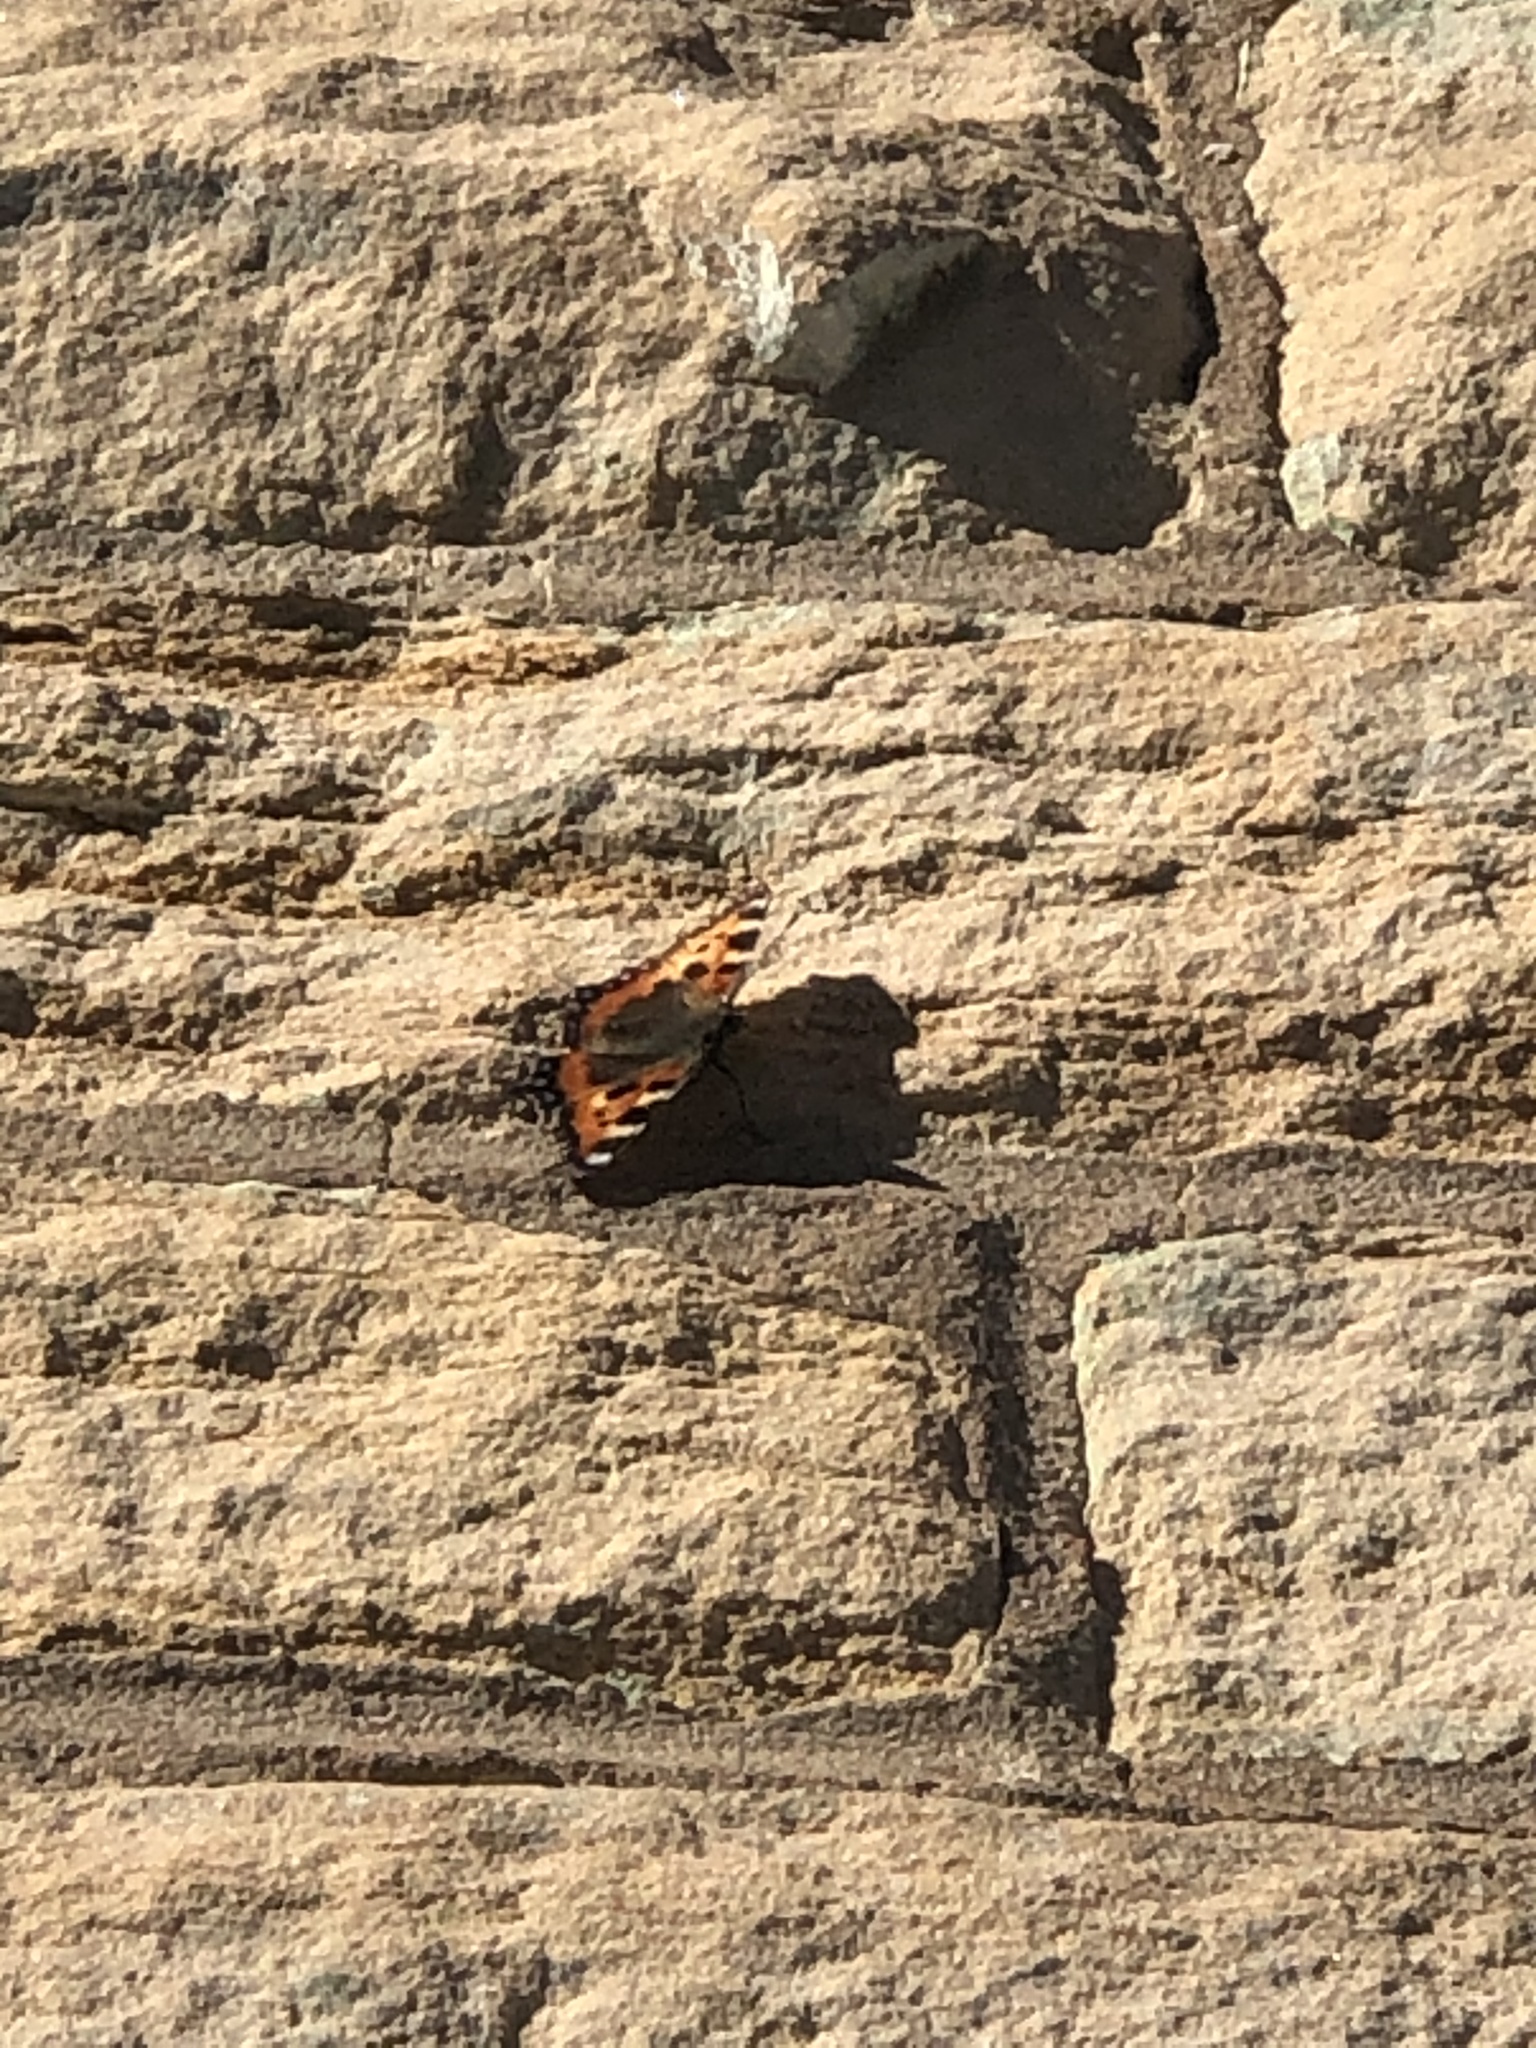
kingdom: Animalia
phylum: Arthropoda
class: Insecta
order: Lepidoptera
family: Nymphalidae
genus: Aglais
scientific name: Aglais urticae
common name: Small tortoiseshell
